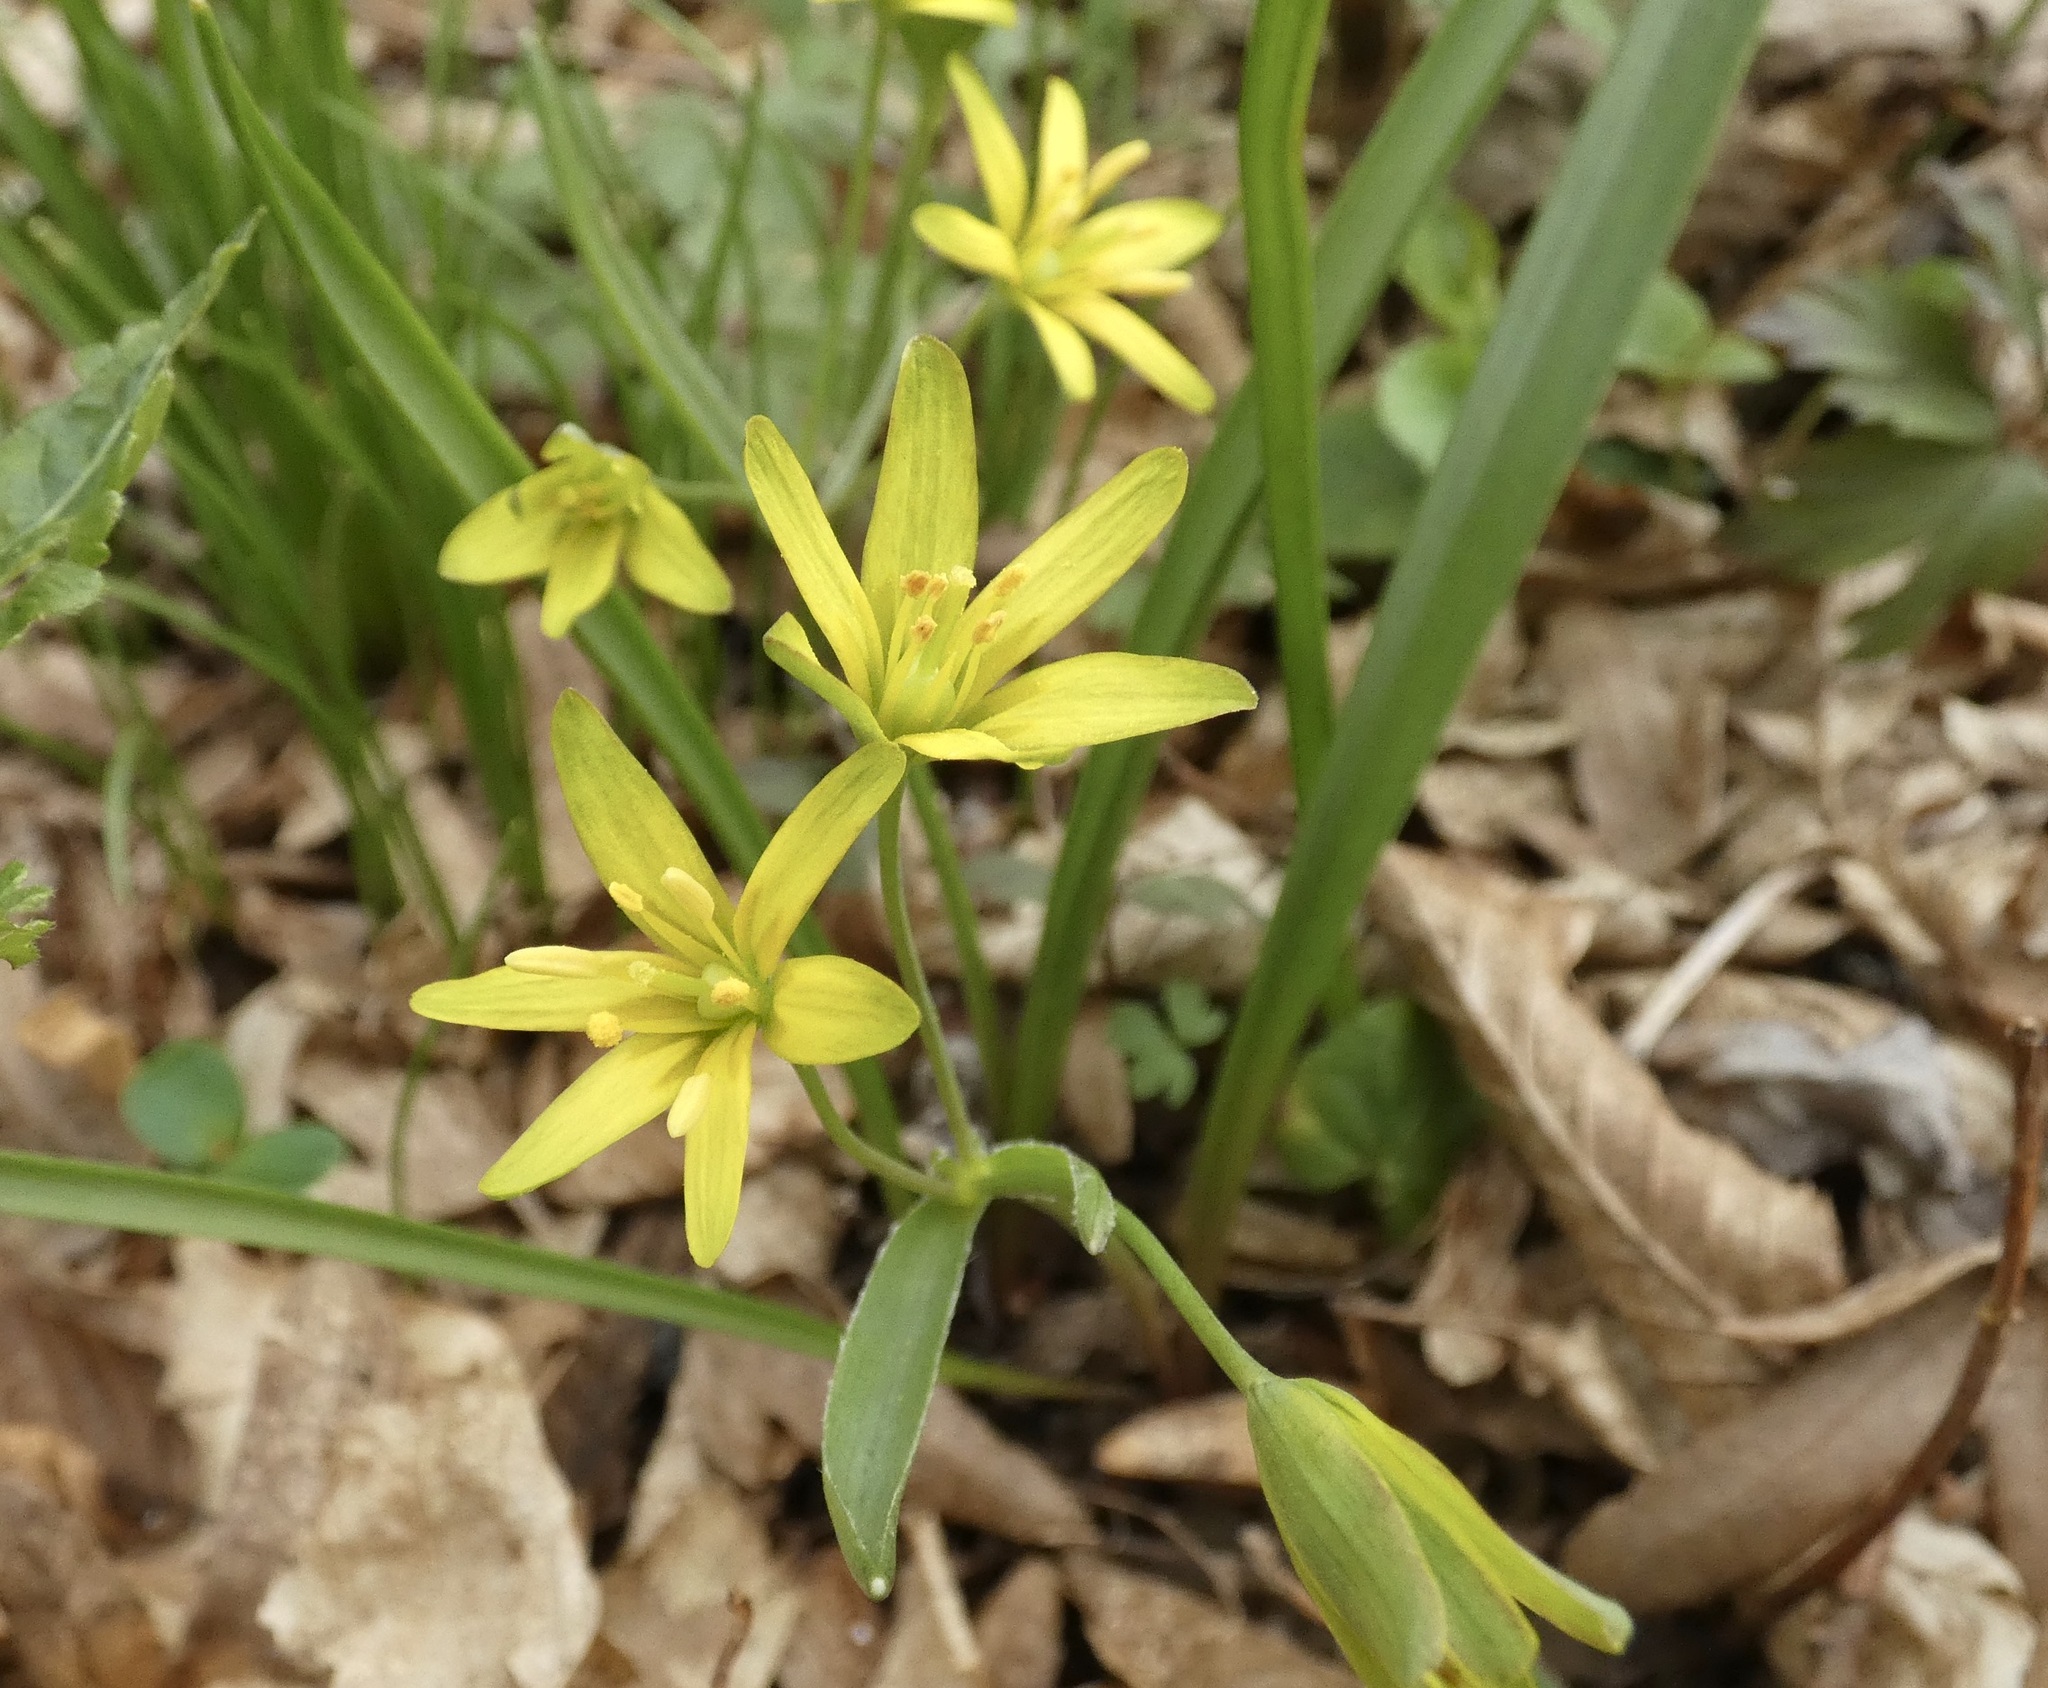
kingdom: Plantae
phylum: Tracheophyta
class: Liliopsida
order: Liliales
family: Liliaceae
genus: Gagea
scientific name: Gagea lutea
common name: Yellow star-of-bethlehem
